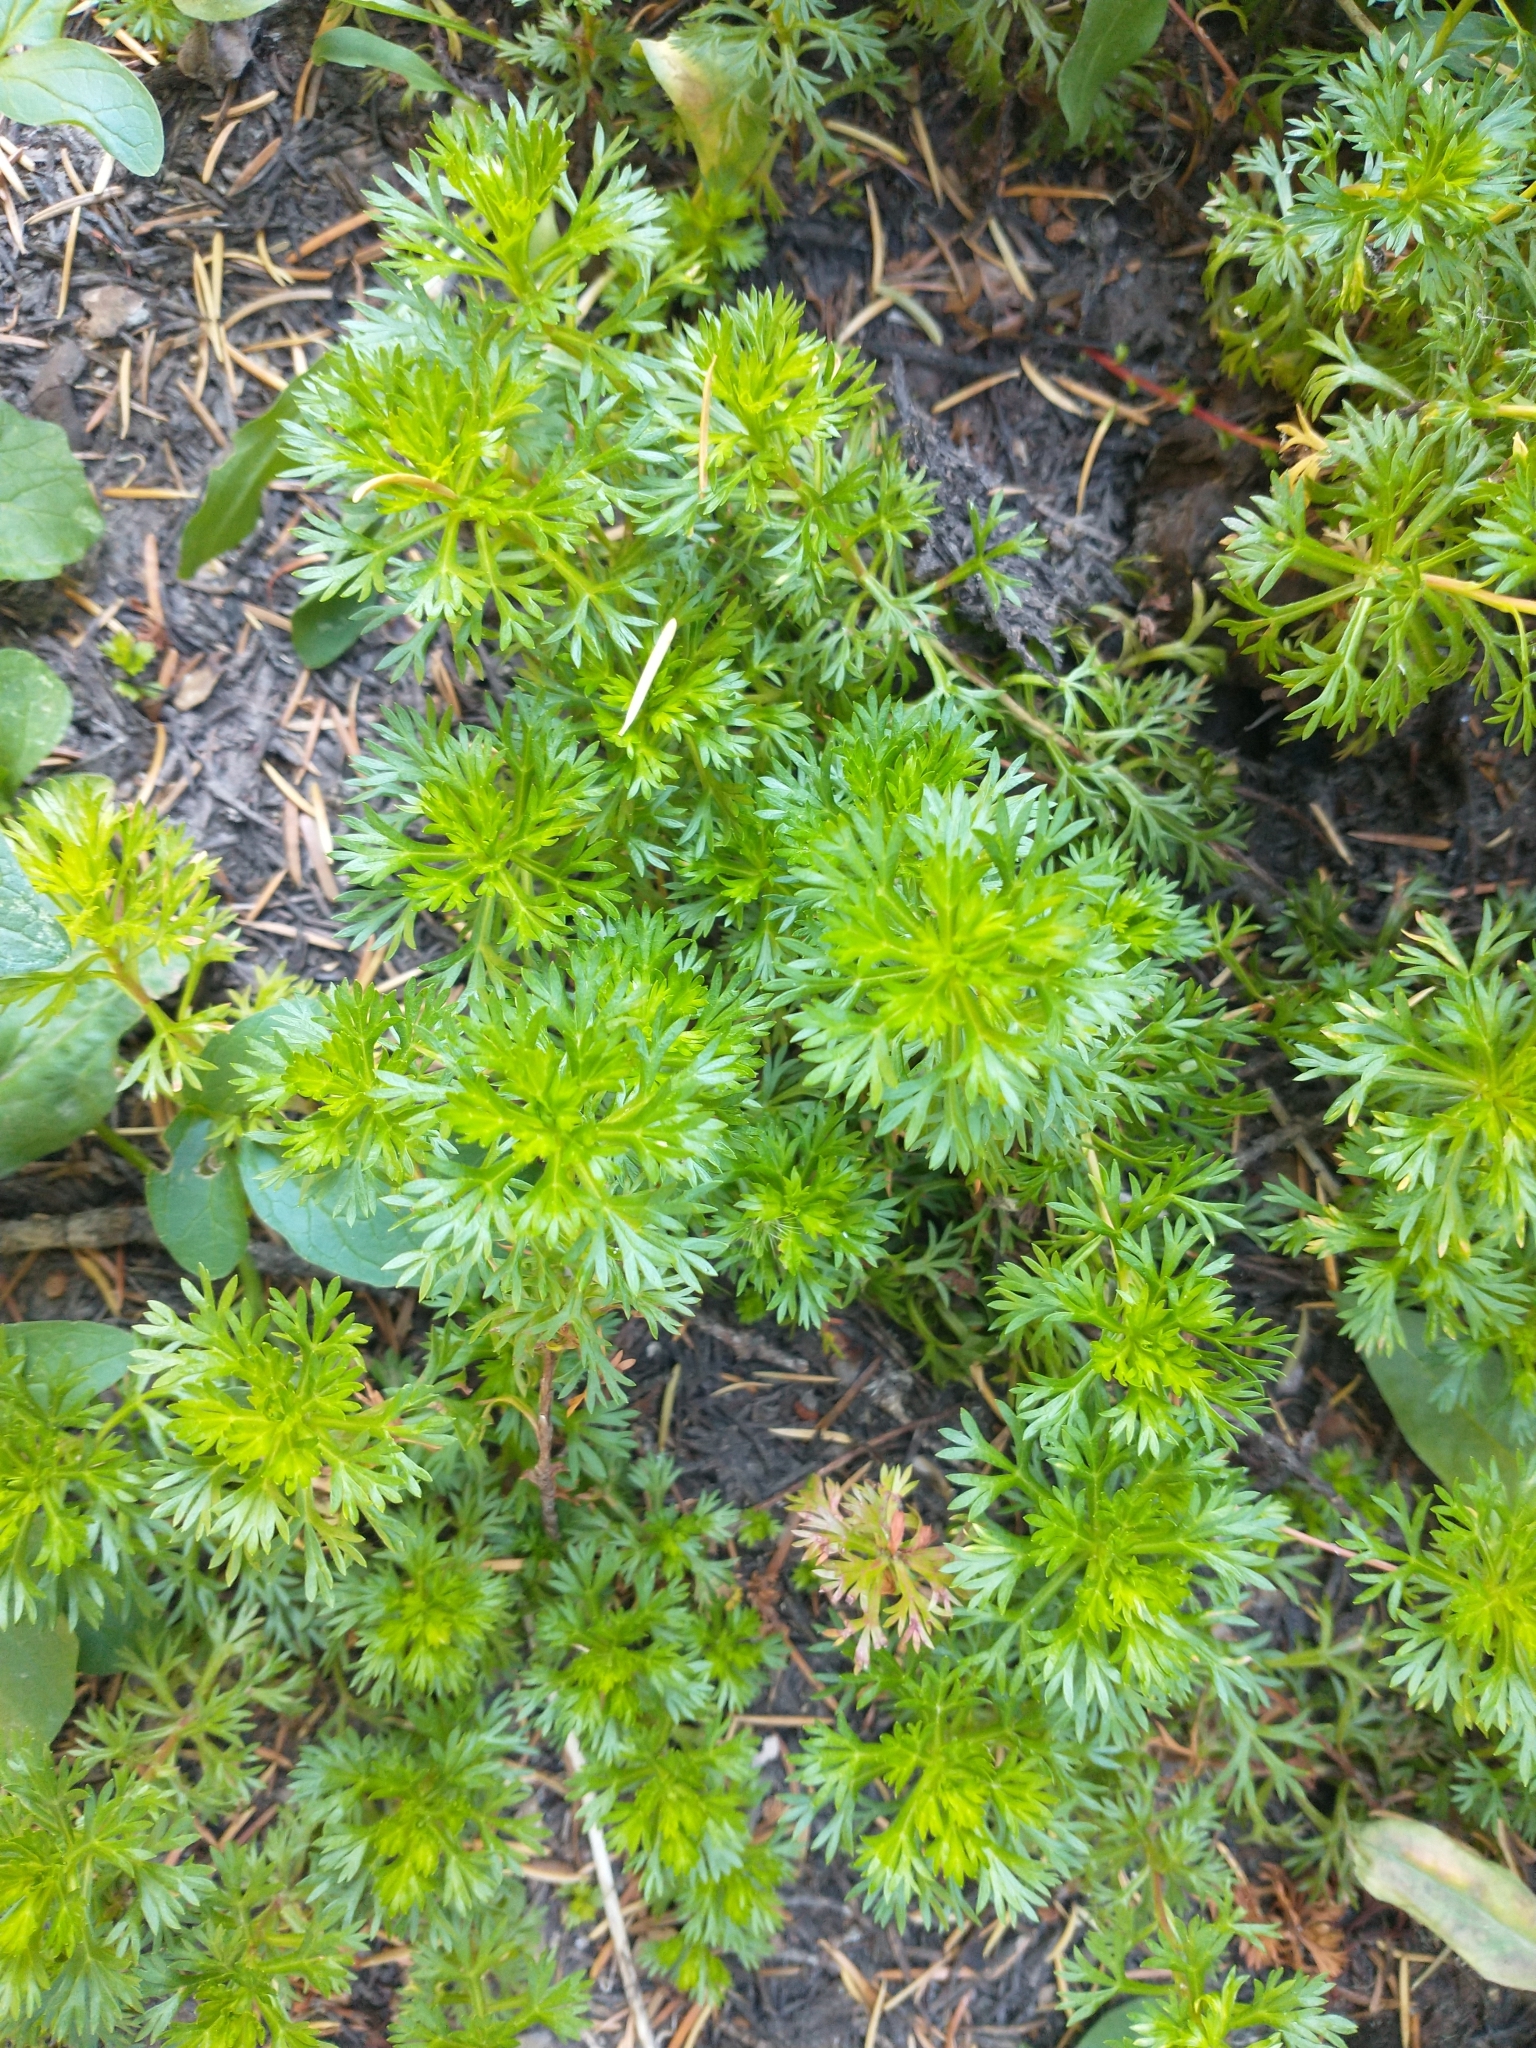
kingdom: Plantae
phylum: Tracheophyta
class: Magnoliopsida
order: Rosales
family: Rosaceae
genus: Luetkea
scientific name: Luetkea pectinata
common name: Partridgefoot
